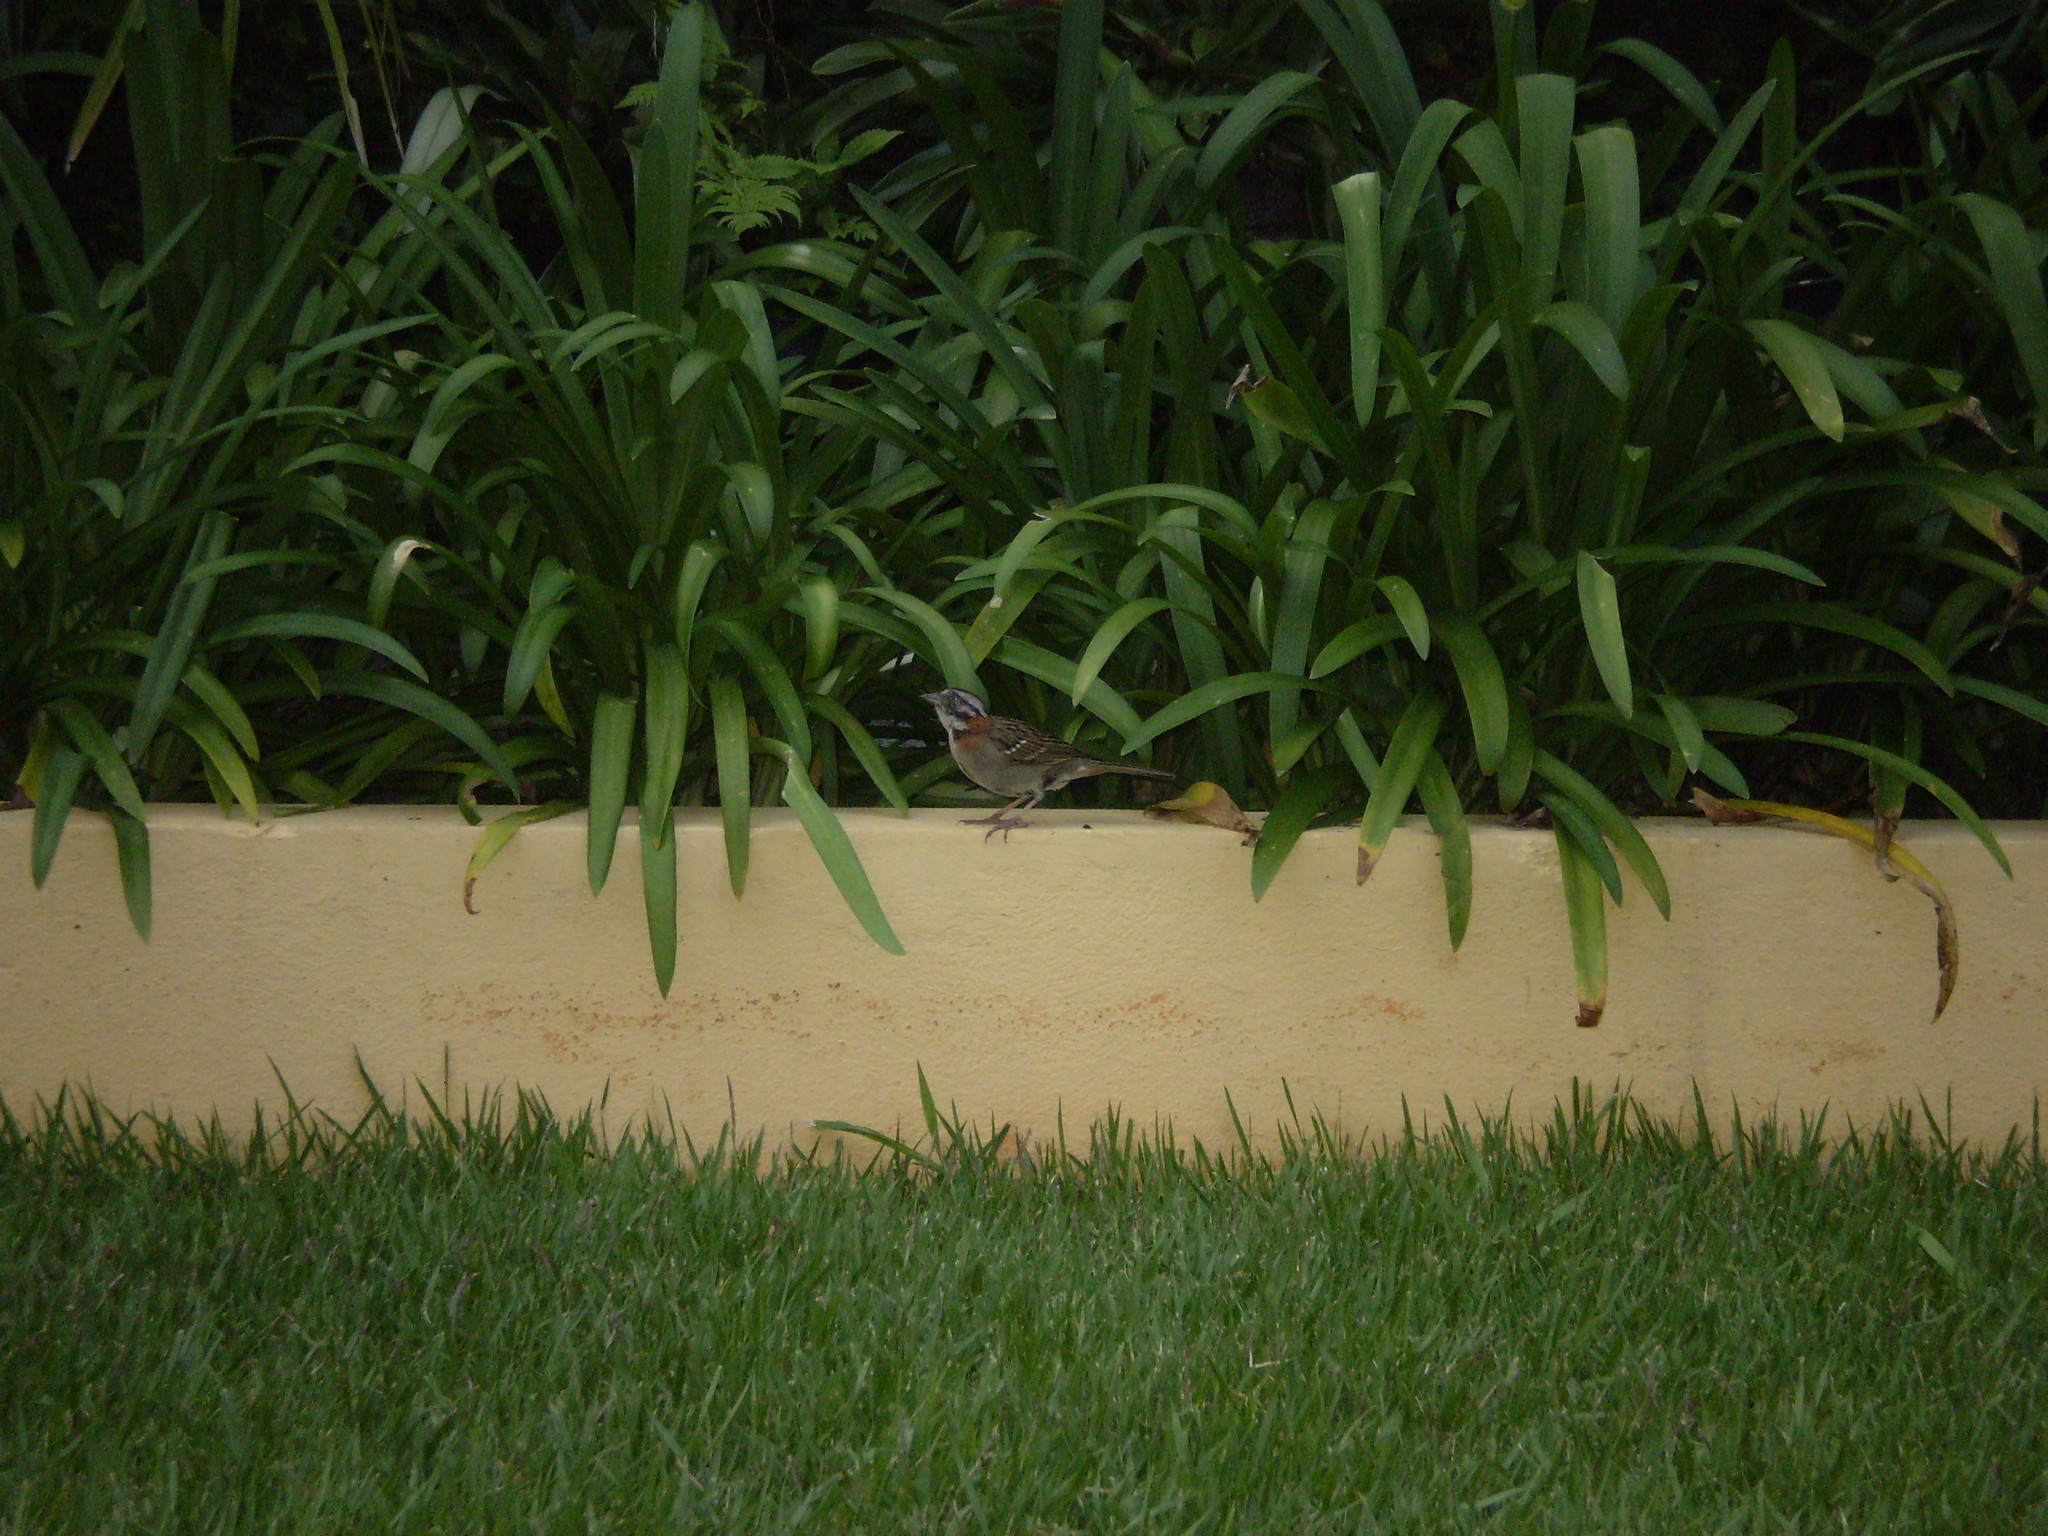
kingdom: Animalia
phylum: Chordata
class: Aves
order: Passeriformes
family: Passerellidae
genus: Zonotrichia
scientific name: Zonotrichia capensis
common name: Rufous-collared sparrow
